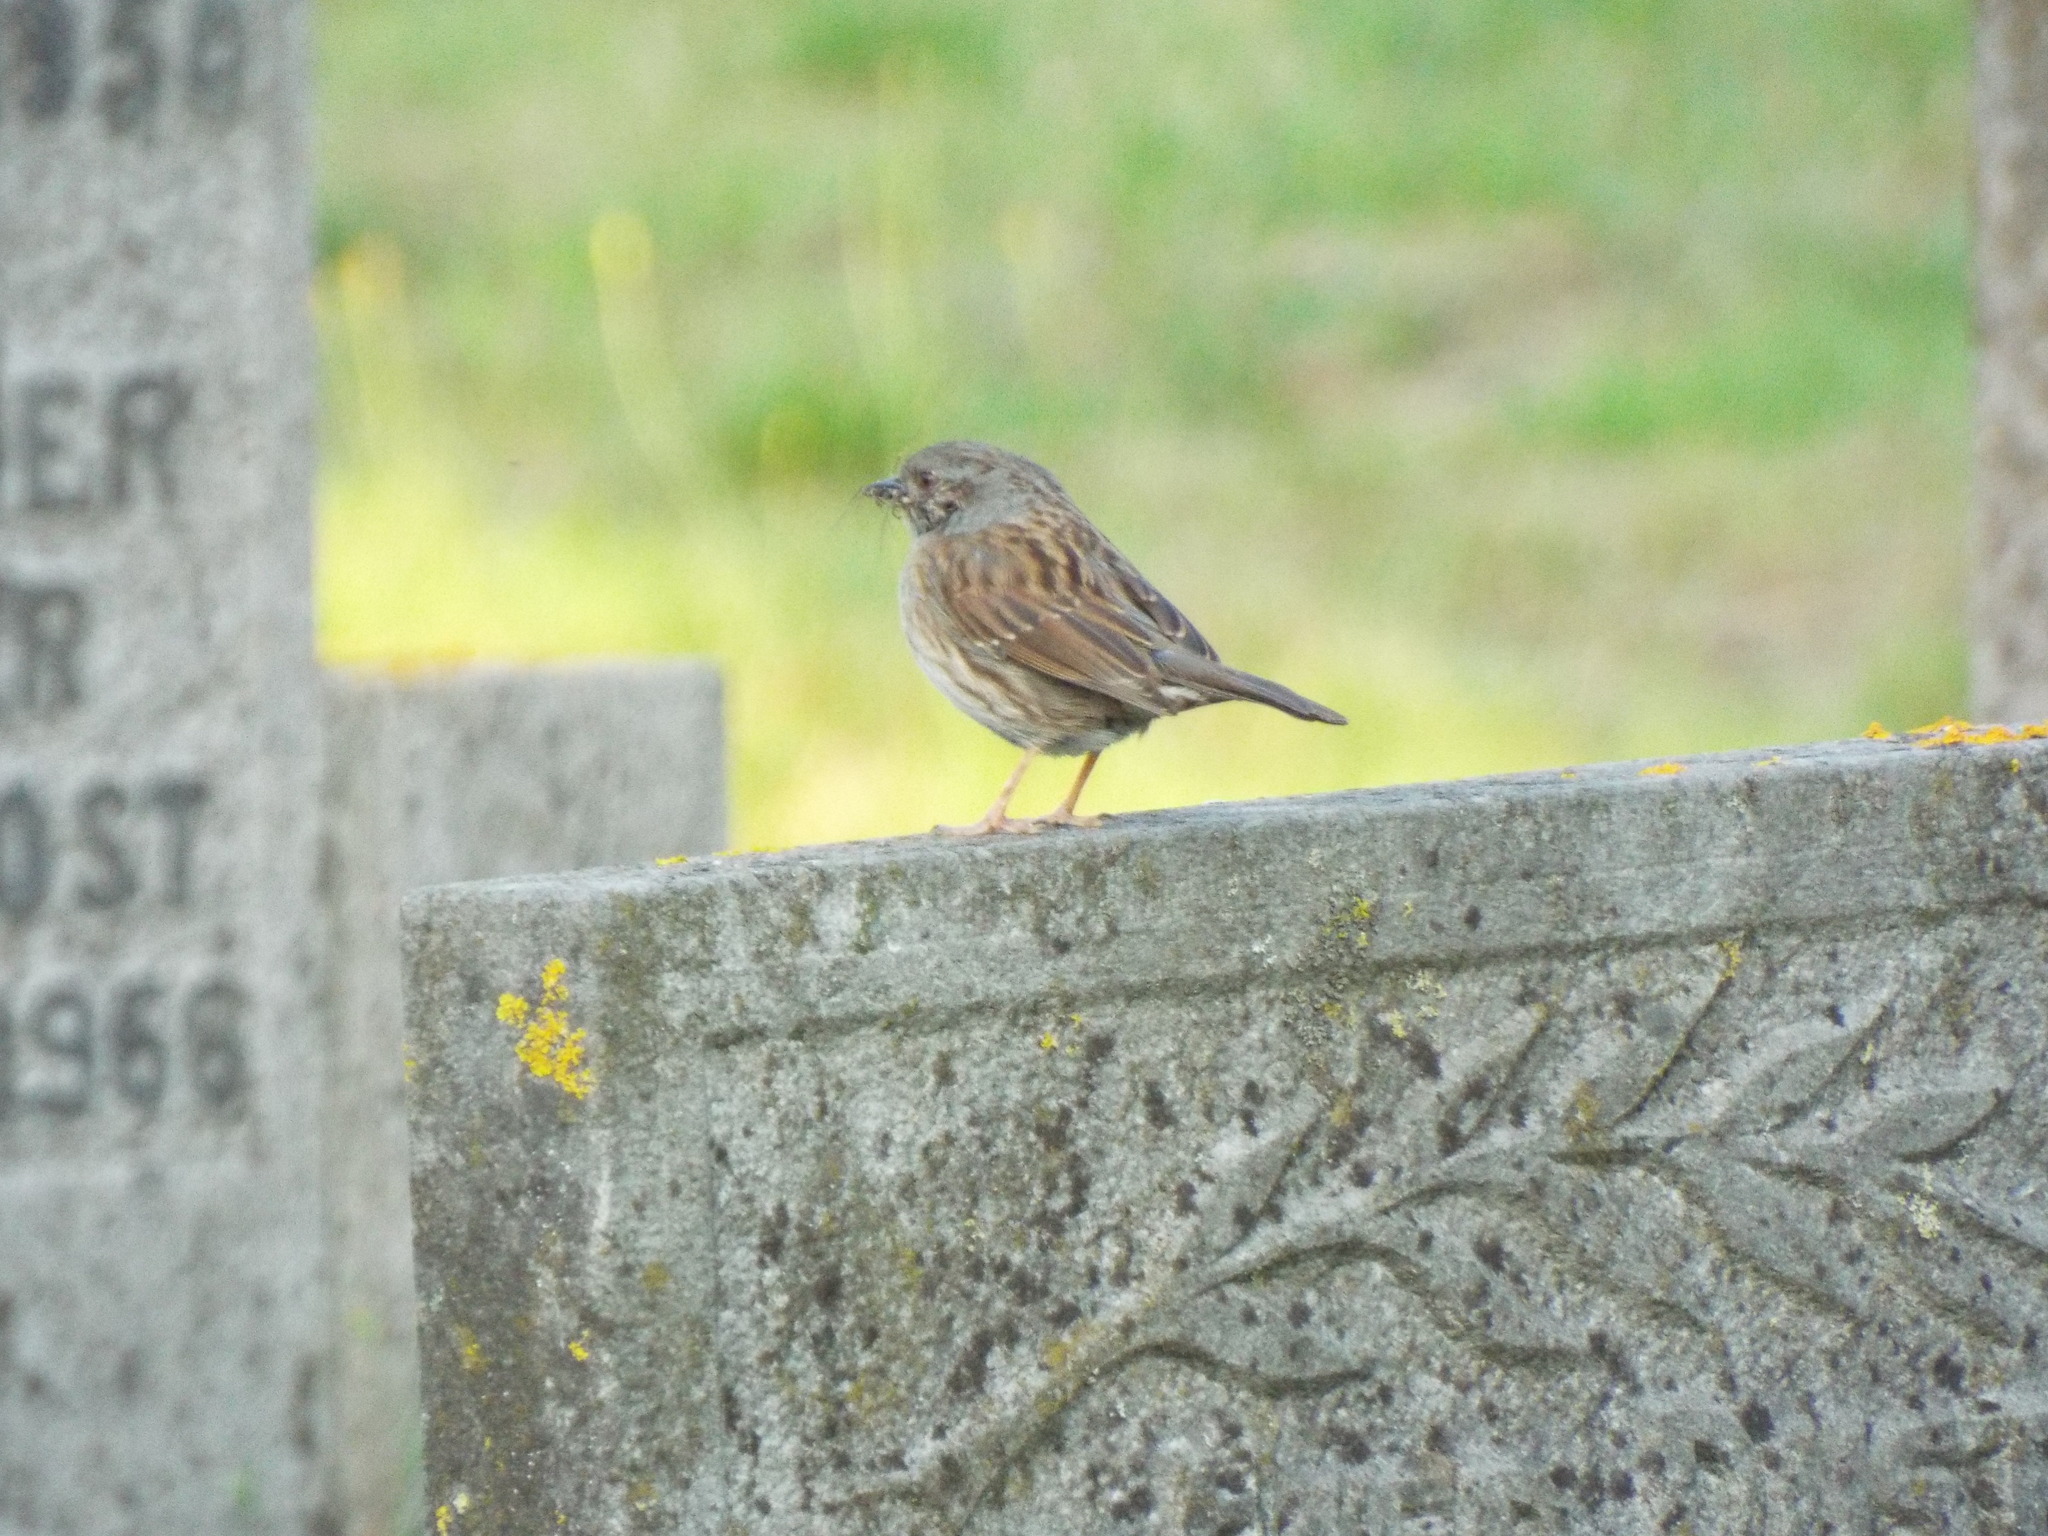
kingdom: Animalia
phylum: Chordata
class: Aves
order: Passeriformes
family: Prunellidae
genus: Prunella
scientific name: Prunella modularis
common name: Dunnock
